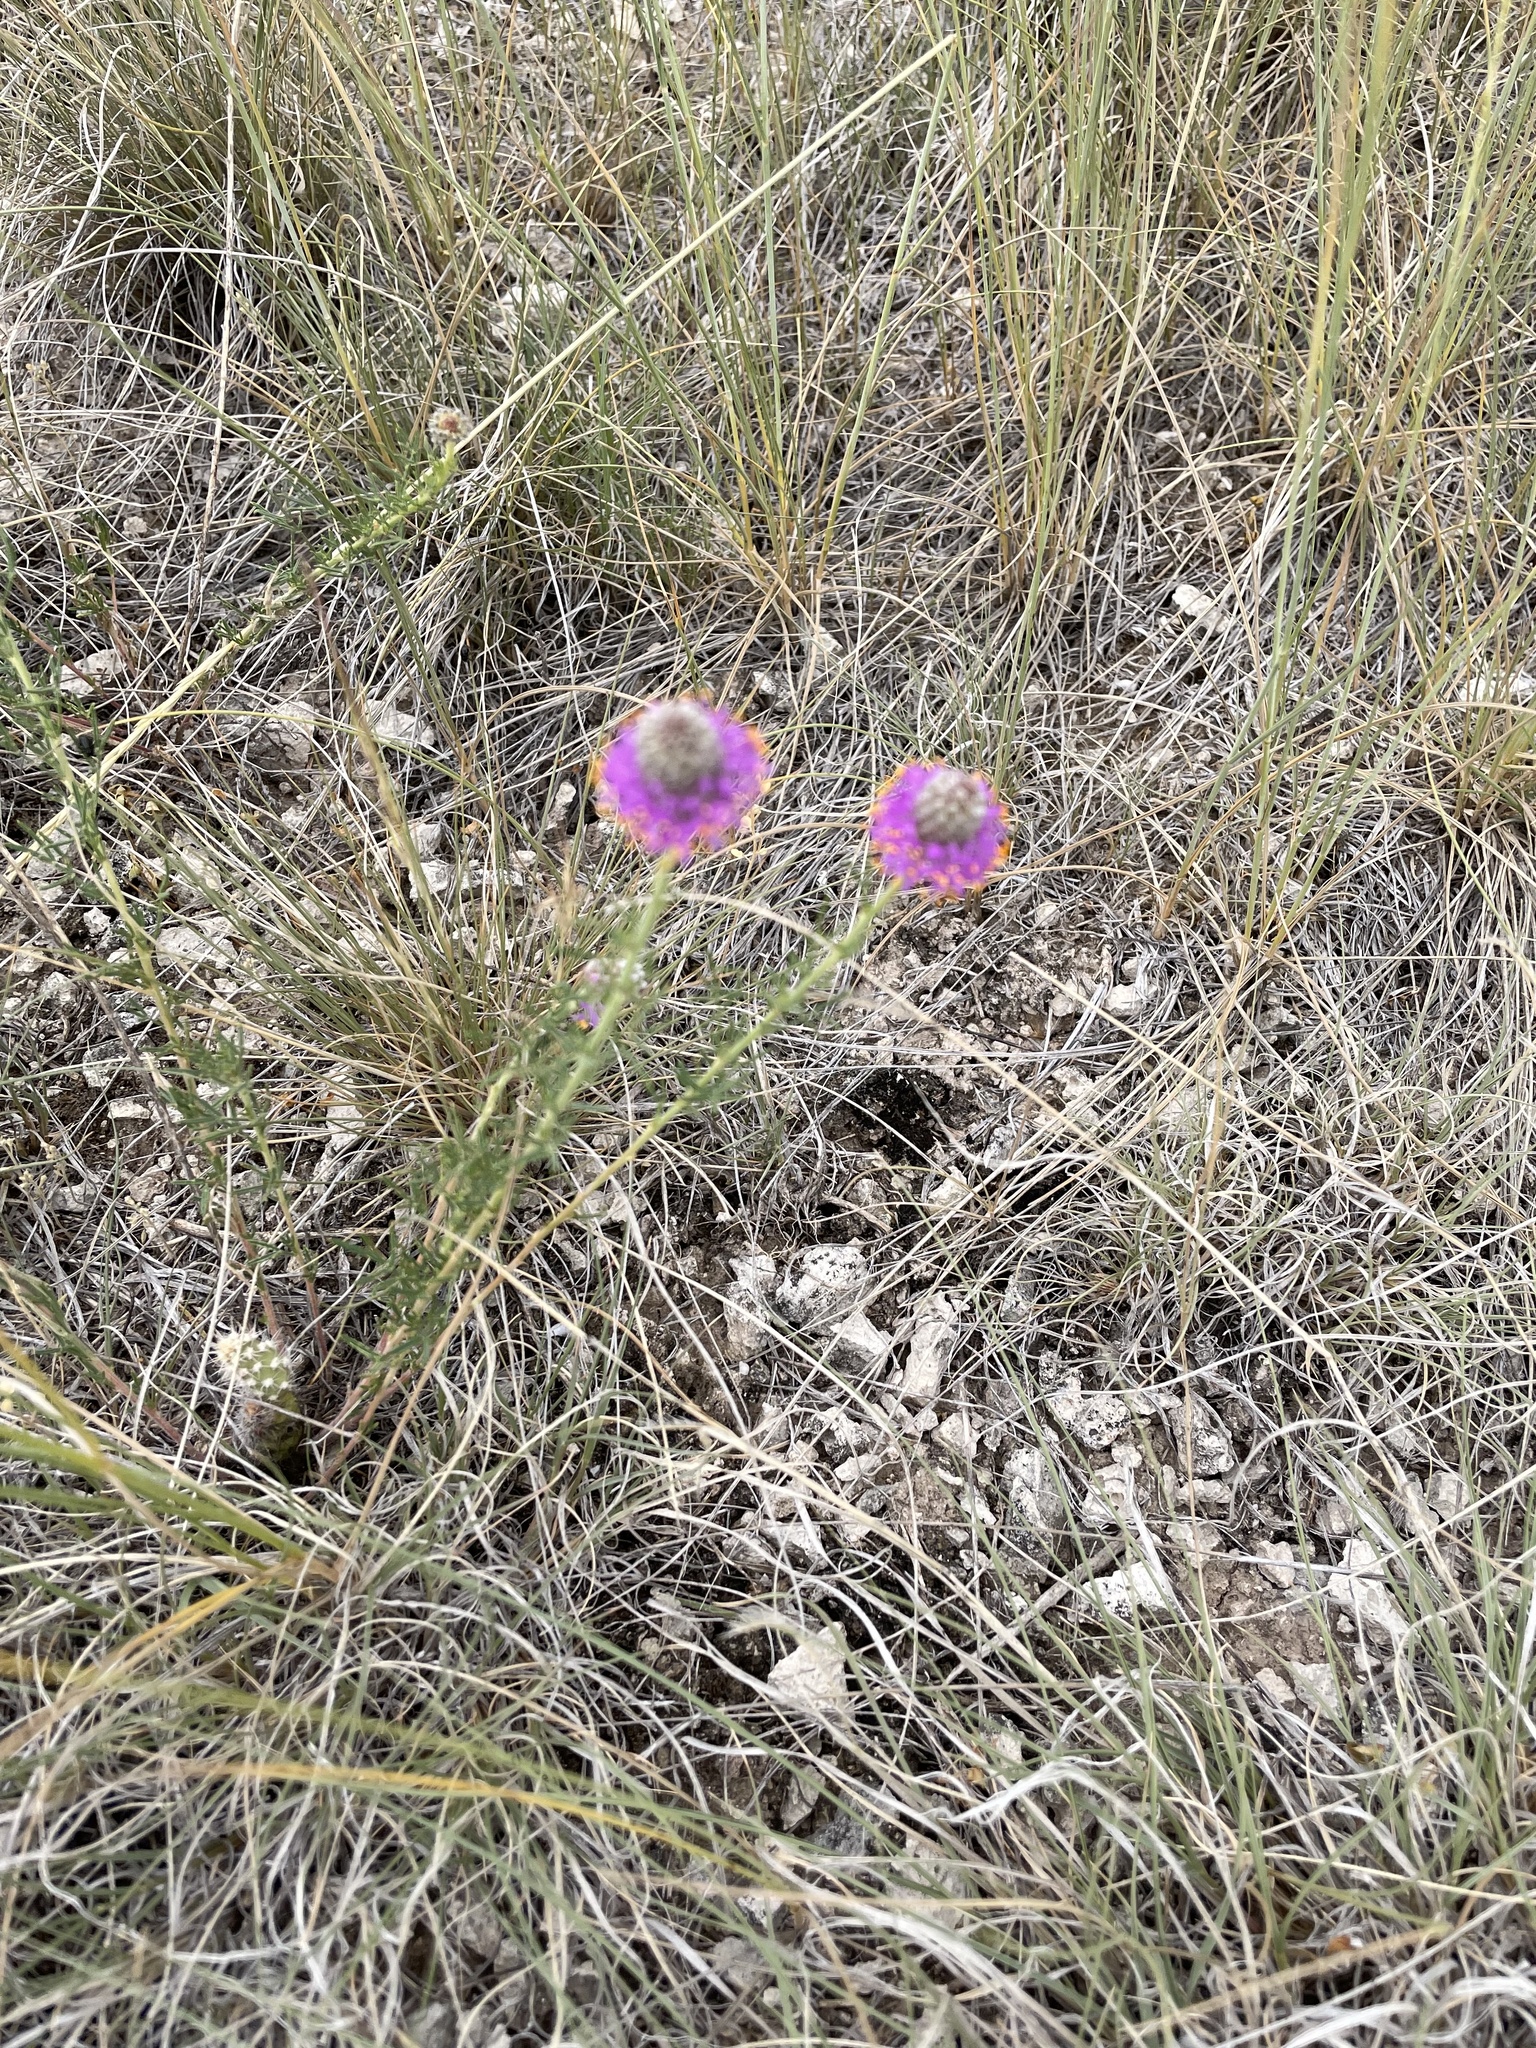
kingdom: Plantae
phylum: Tracheophyta
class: Magnoliopsida
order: Fabales
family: Fabaceae
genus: Dalea
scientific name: Dalea purpurea
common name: Purple prairie-clover
